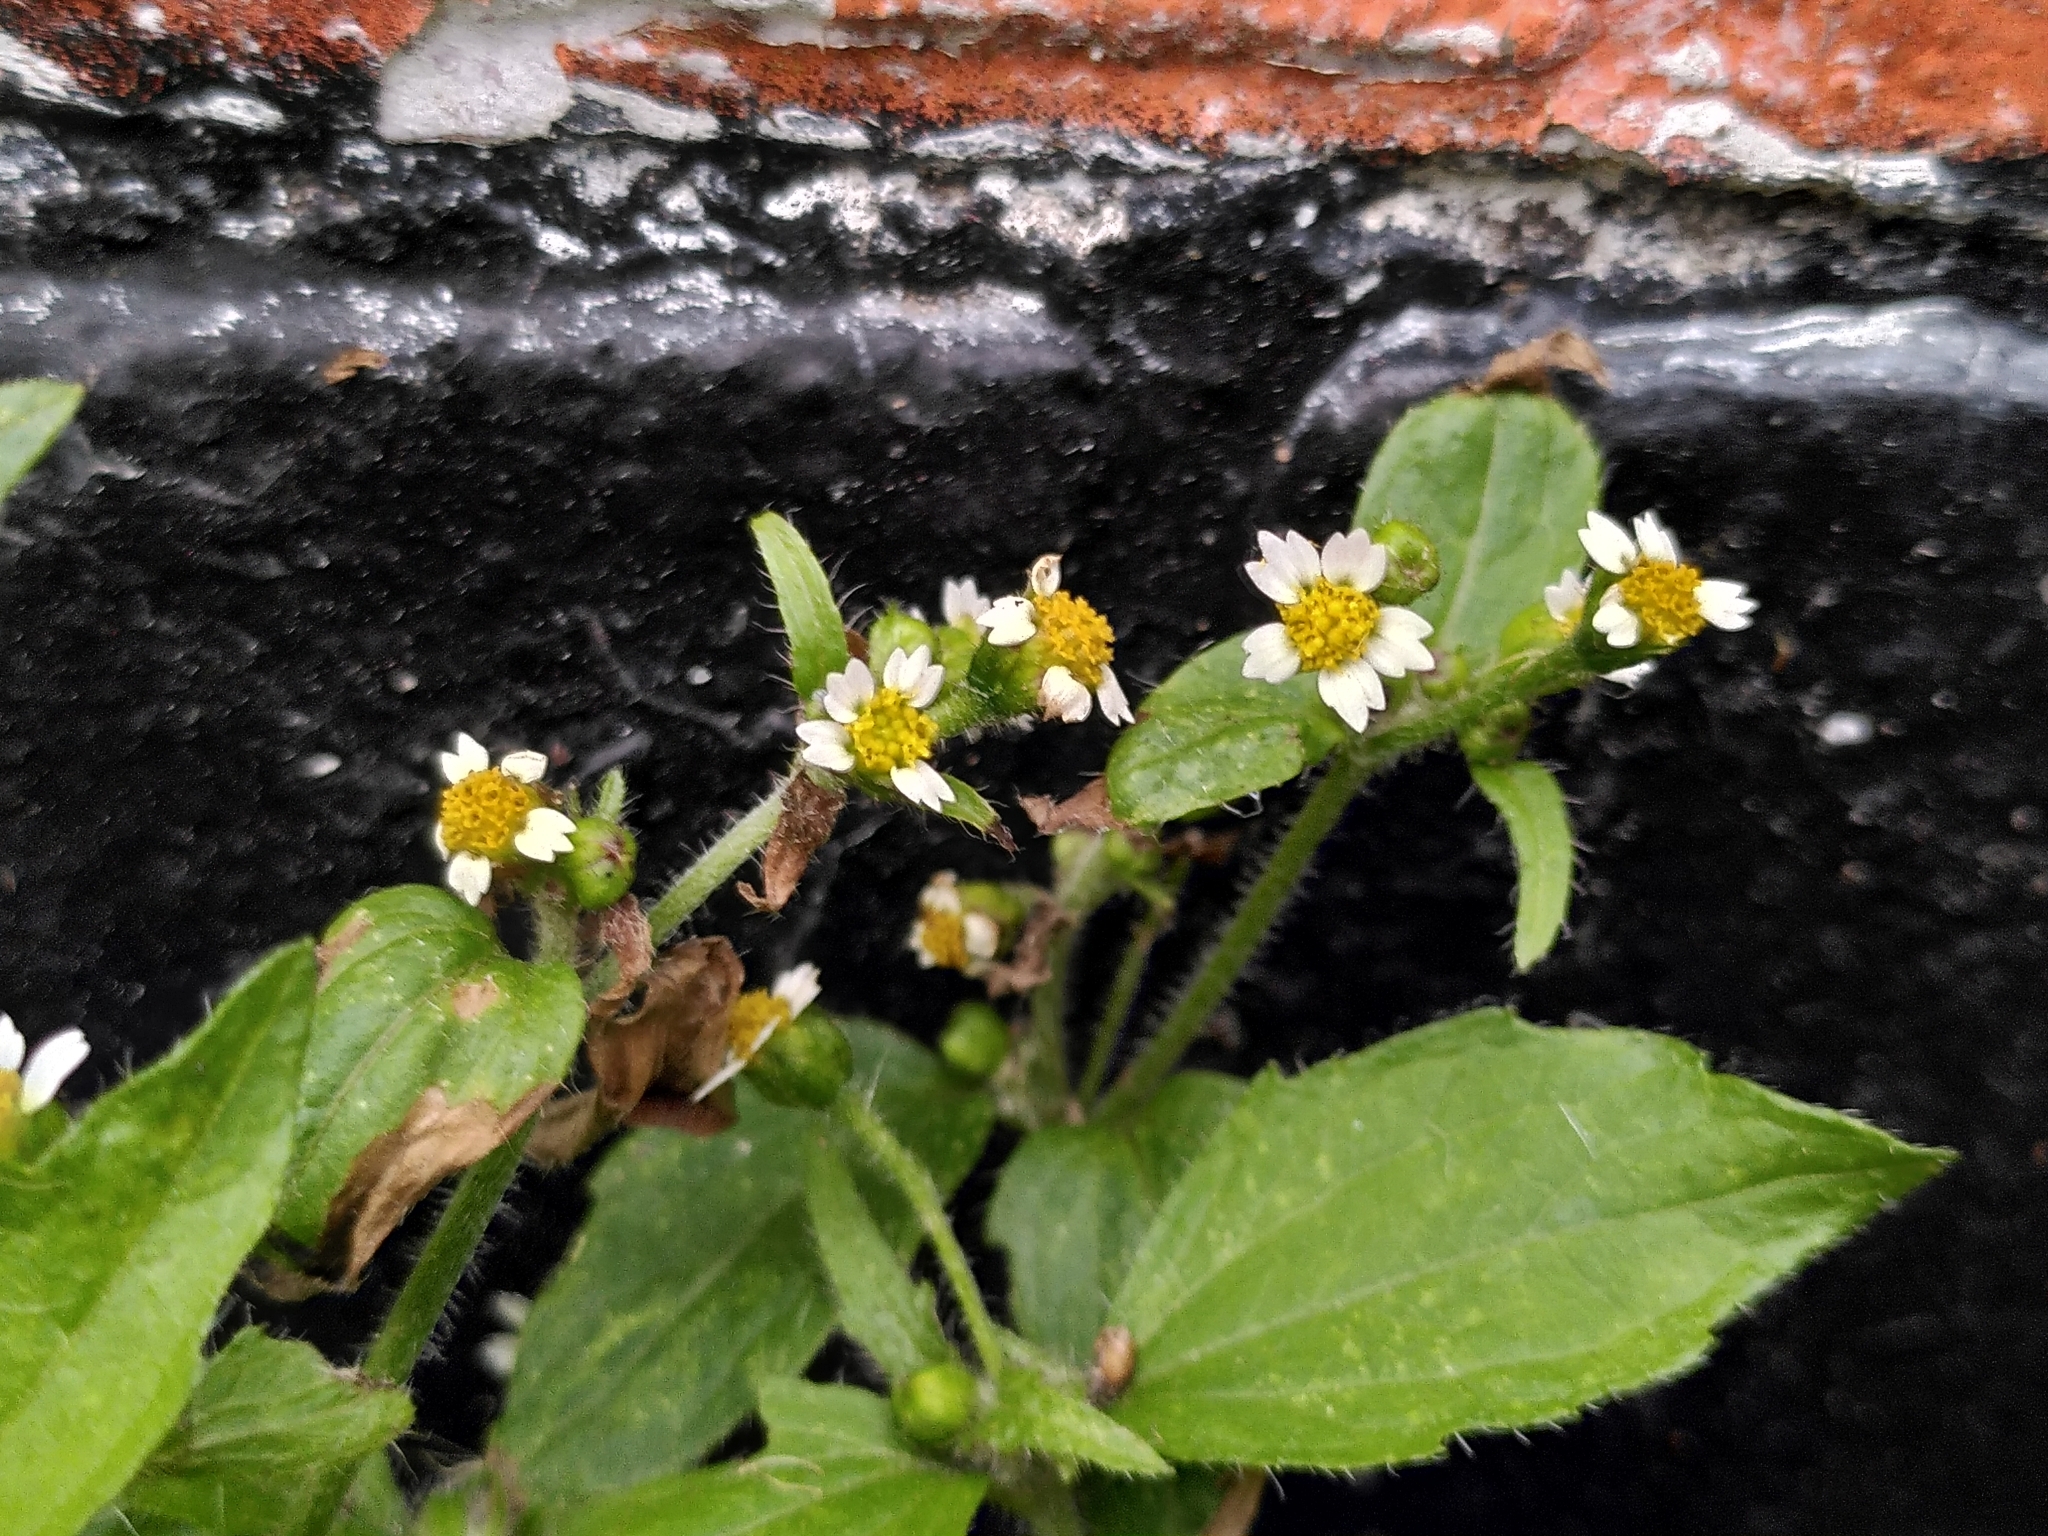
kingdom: Plantae
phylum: Tracheophyta
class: Magnoliopsida
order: Asterales
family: Asteraceae
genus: Galinsoga
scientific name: Galinsoga quadriradiata
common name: Shaggy soldier
